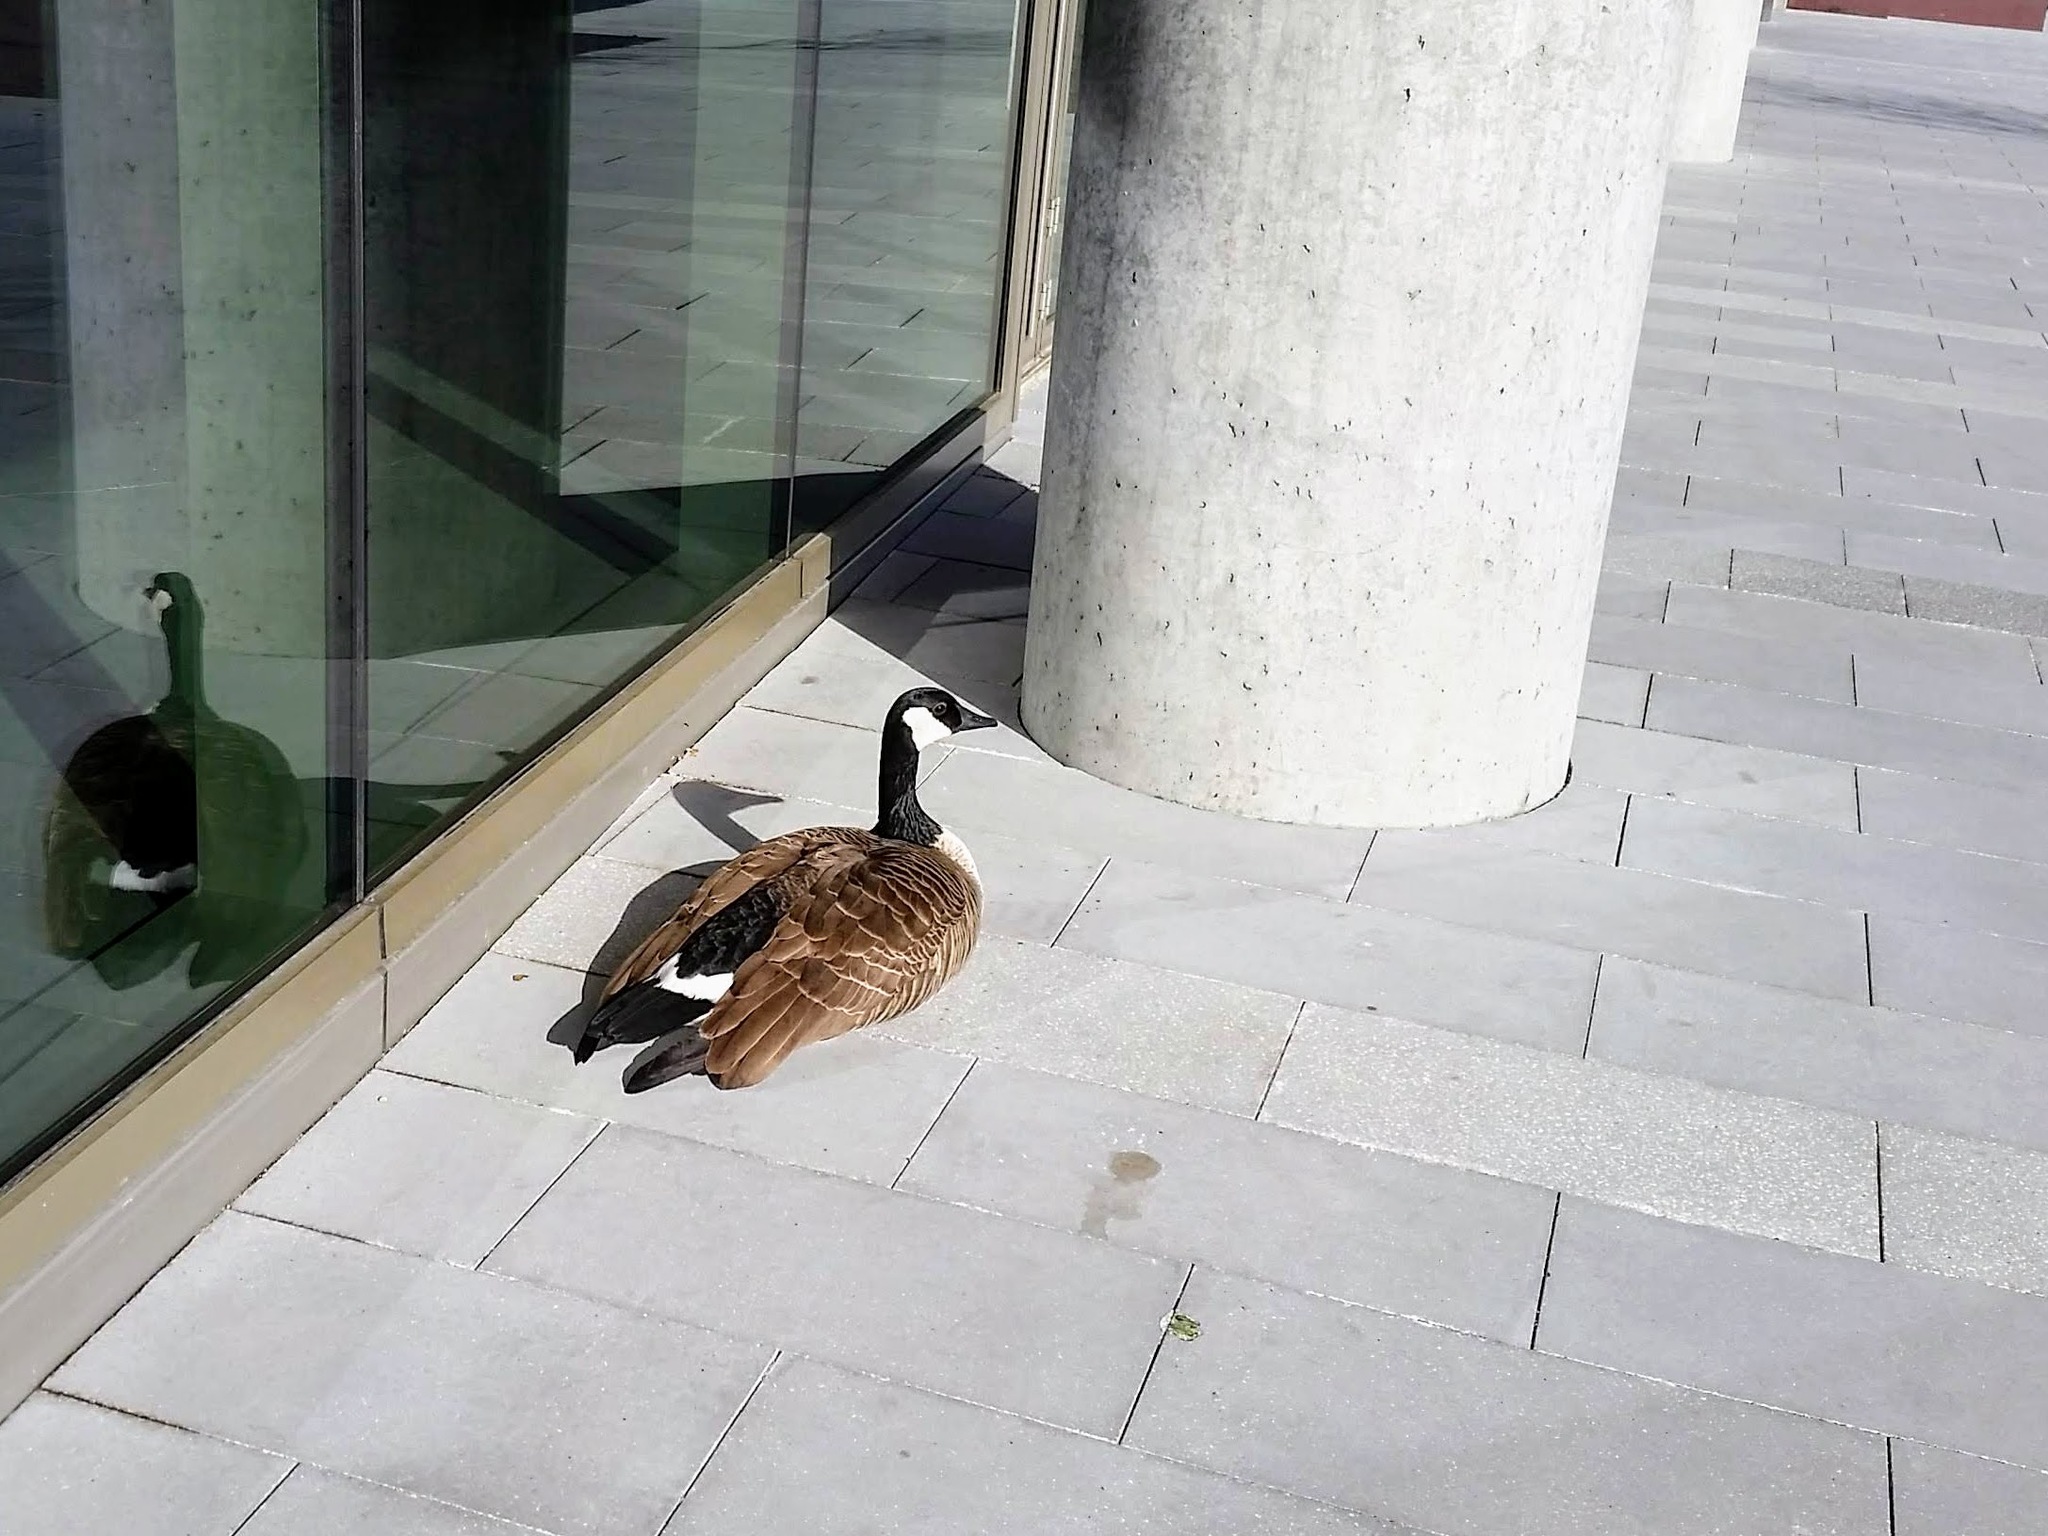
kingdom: Animalia
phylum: Chordata
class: Aves
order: Anseriformes
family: Anatidae
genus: Branta
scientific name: Branta canadensis
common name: Canada goose
